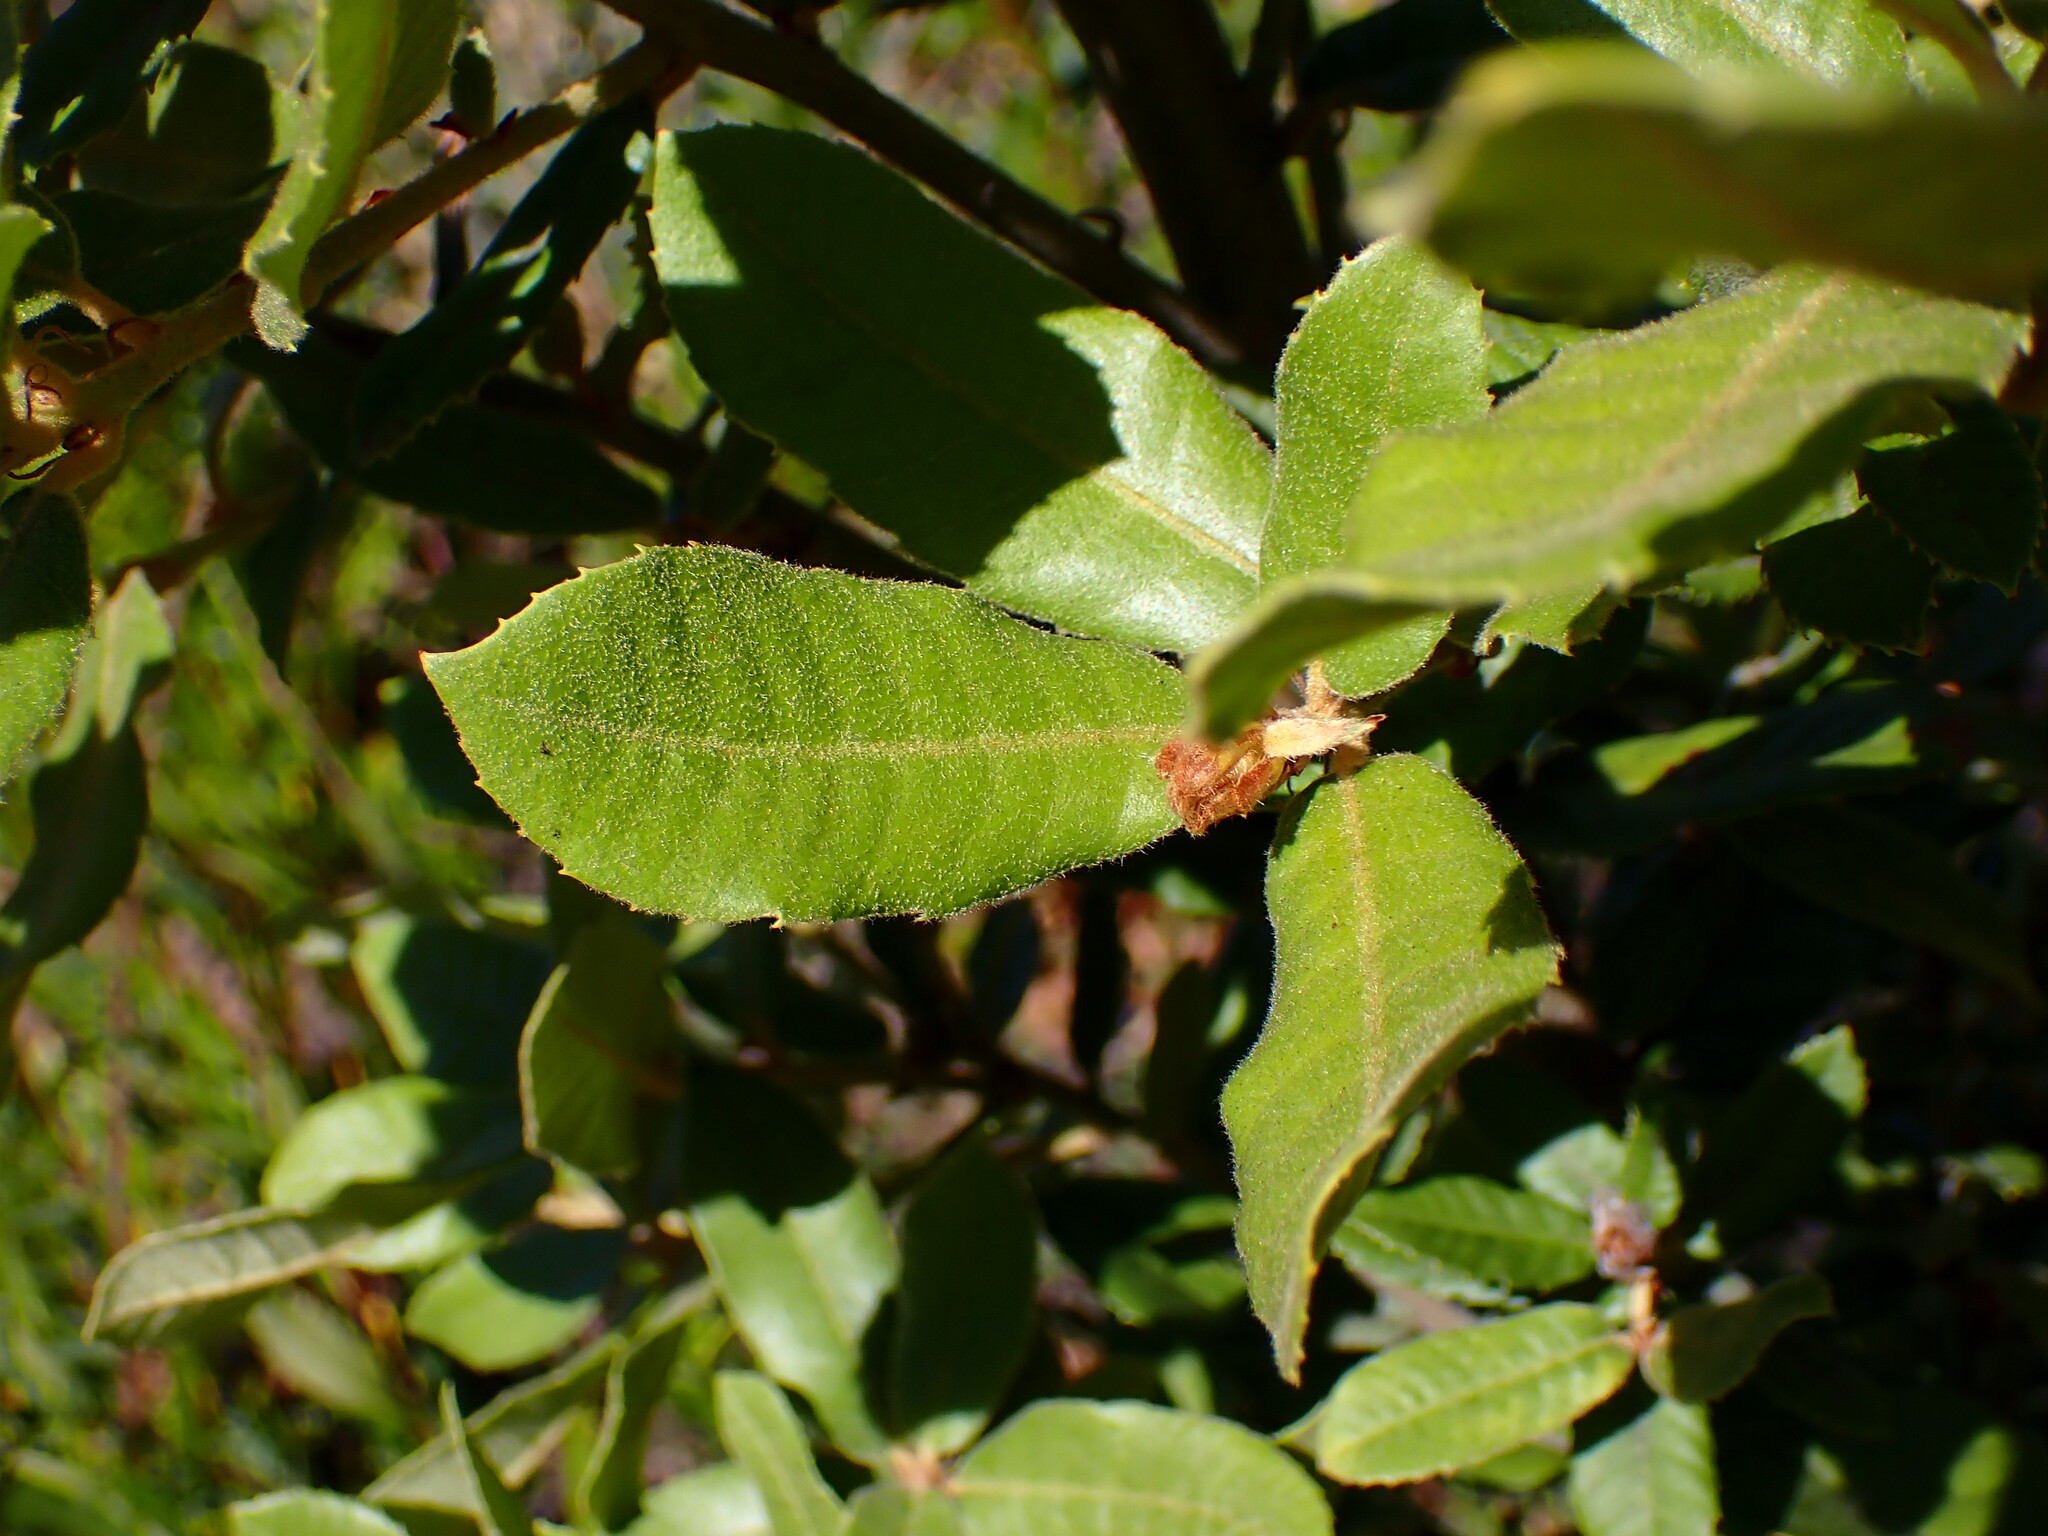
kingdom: Plantae
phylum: Tracheophyta
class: Magnoliopsida
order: Fagales
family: Fagaceae
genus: Notholithocarpus
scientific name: Notholithocarpus densiflorus
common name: Tan bark oak
